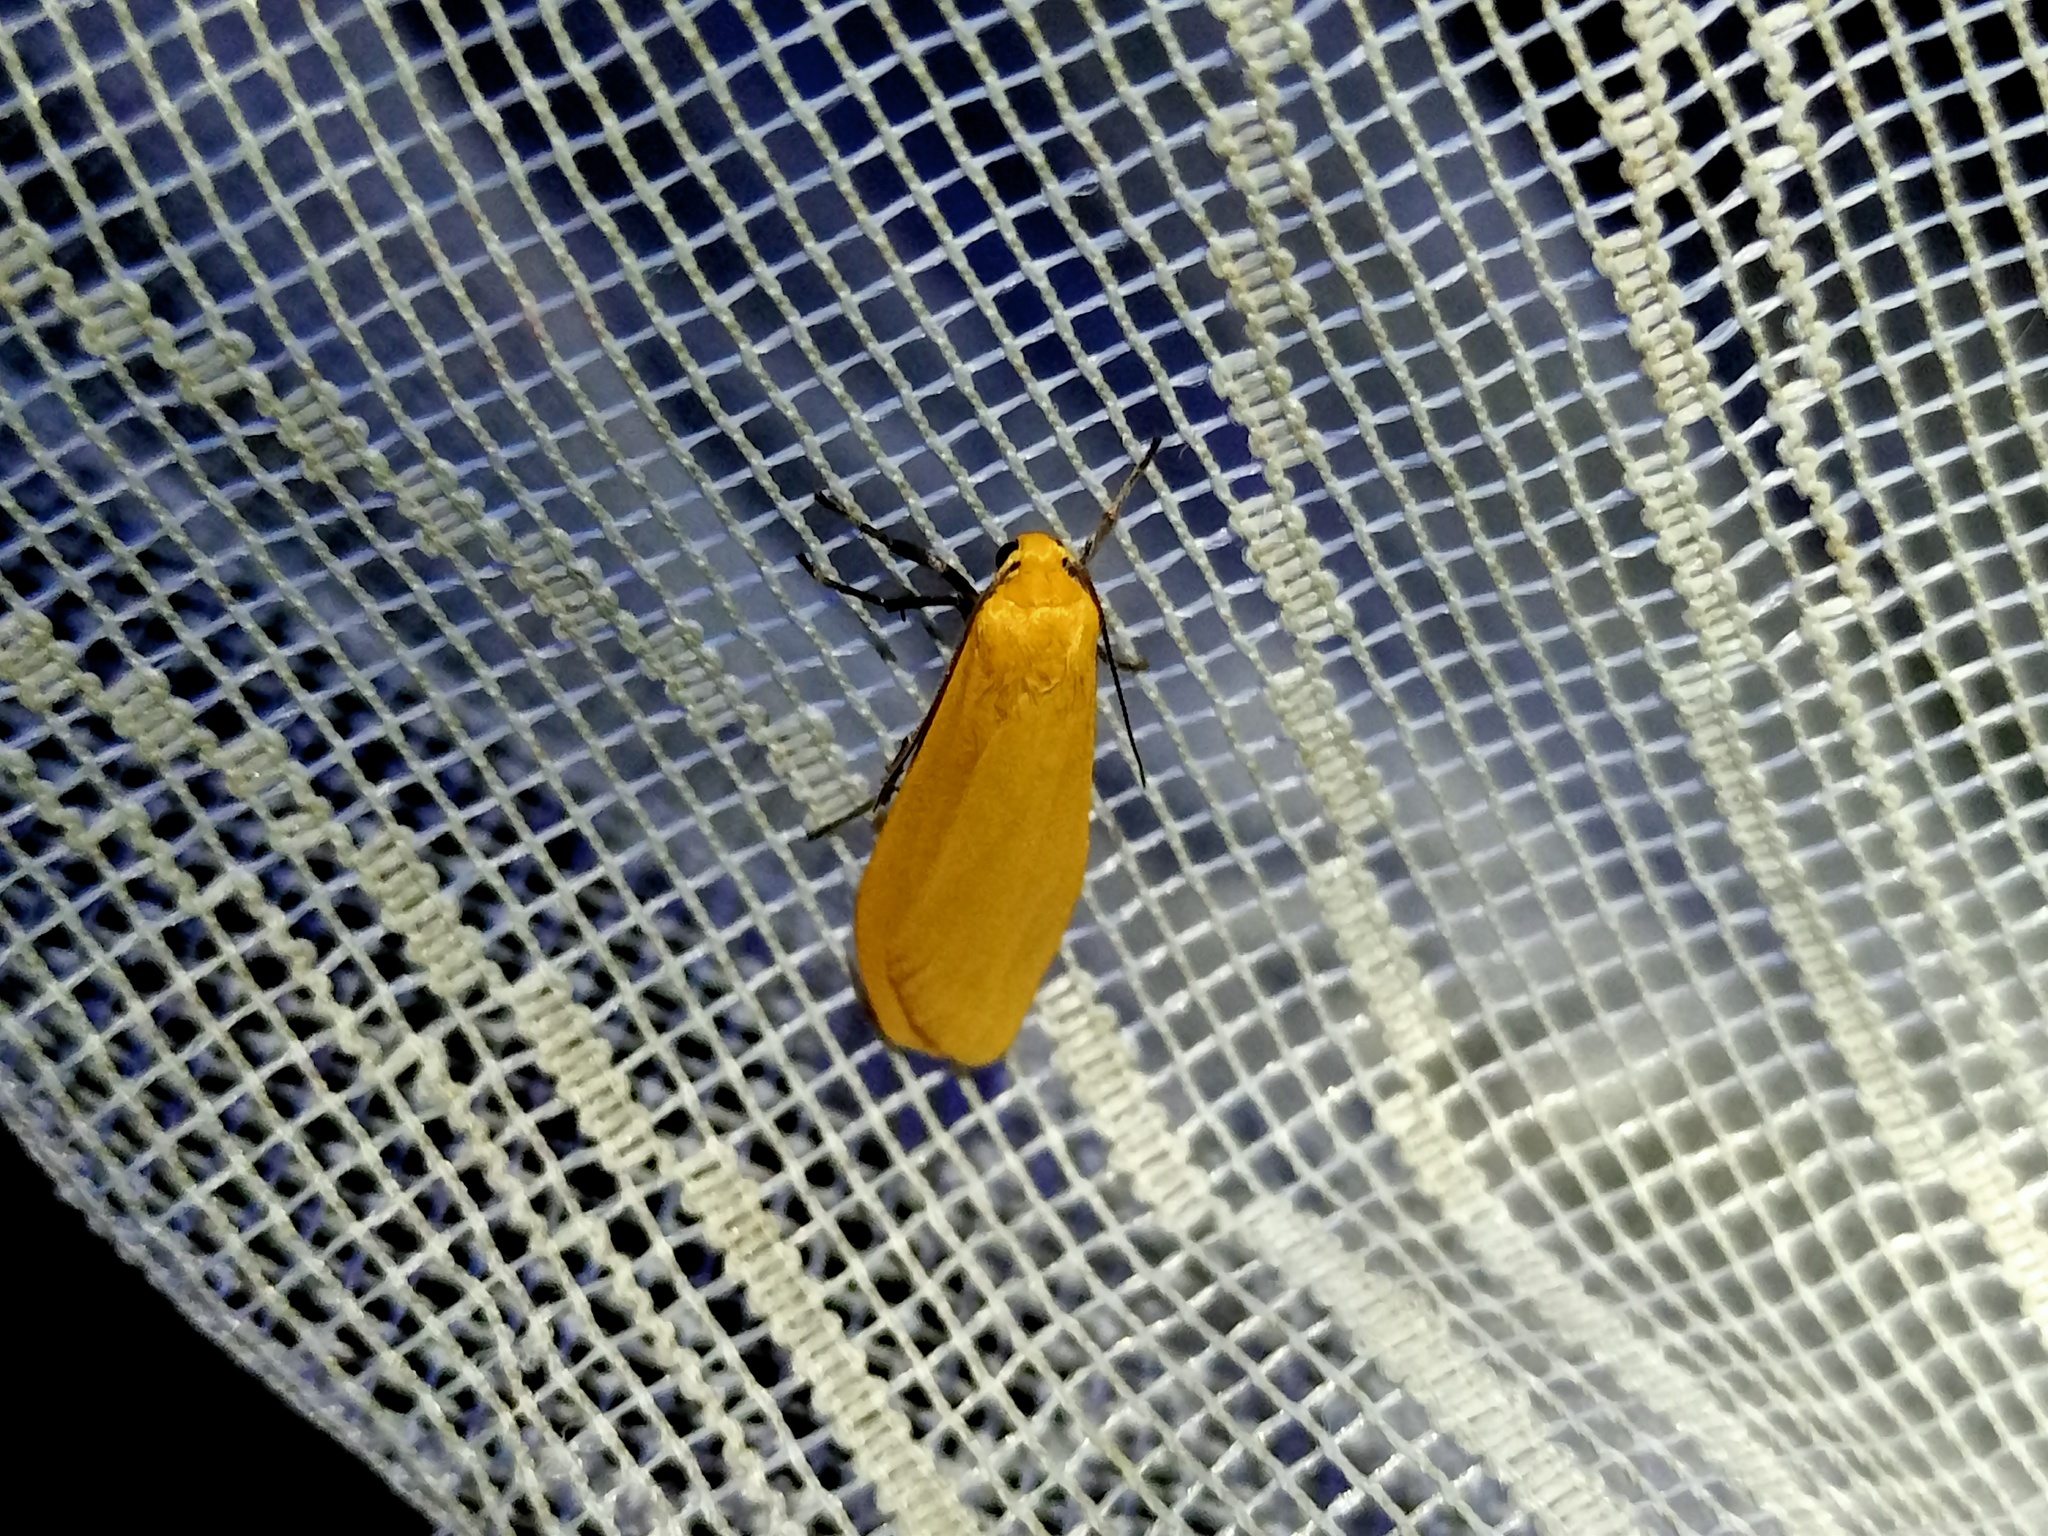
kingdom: Animalia
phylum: Arthropoda
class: Insecta
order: Lepidoptera
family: Erebidae
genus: Wittia
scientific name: Wittia sororcula
